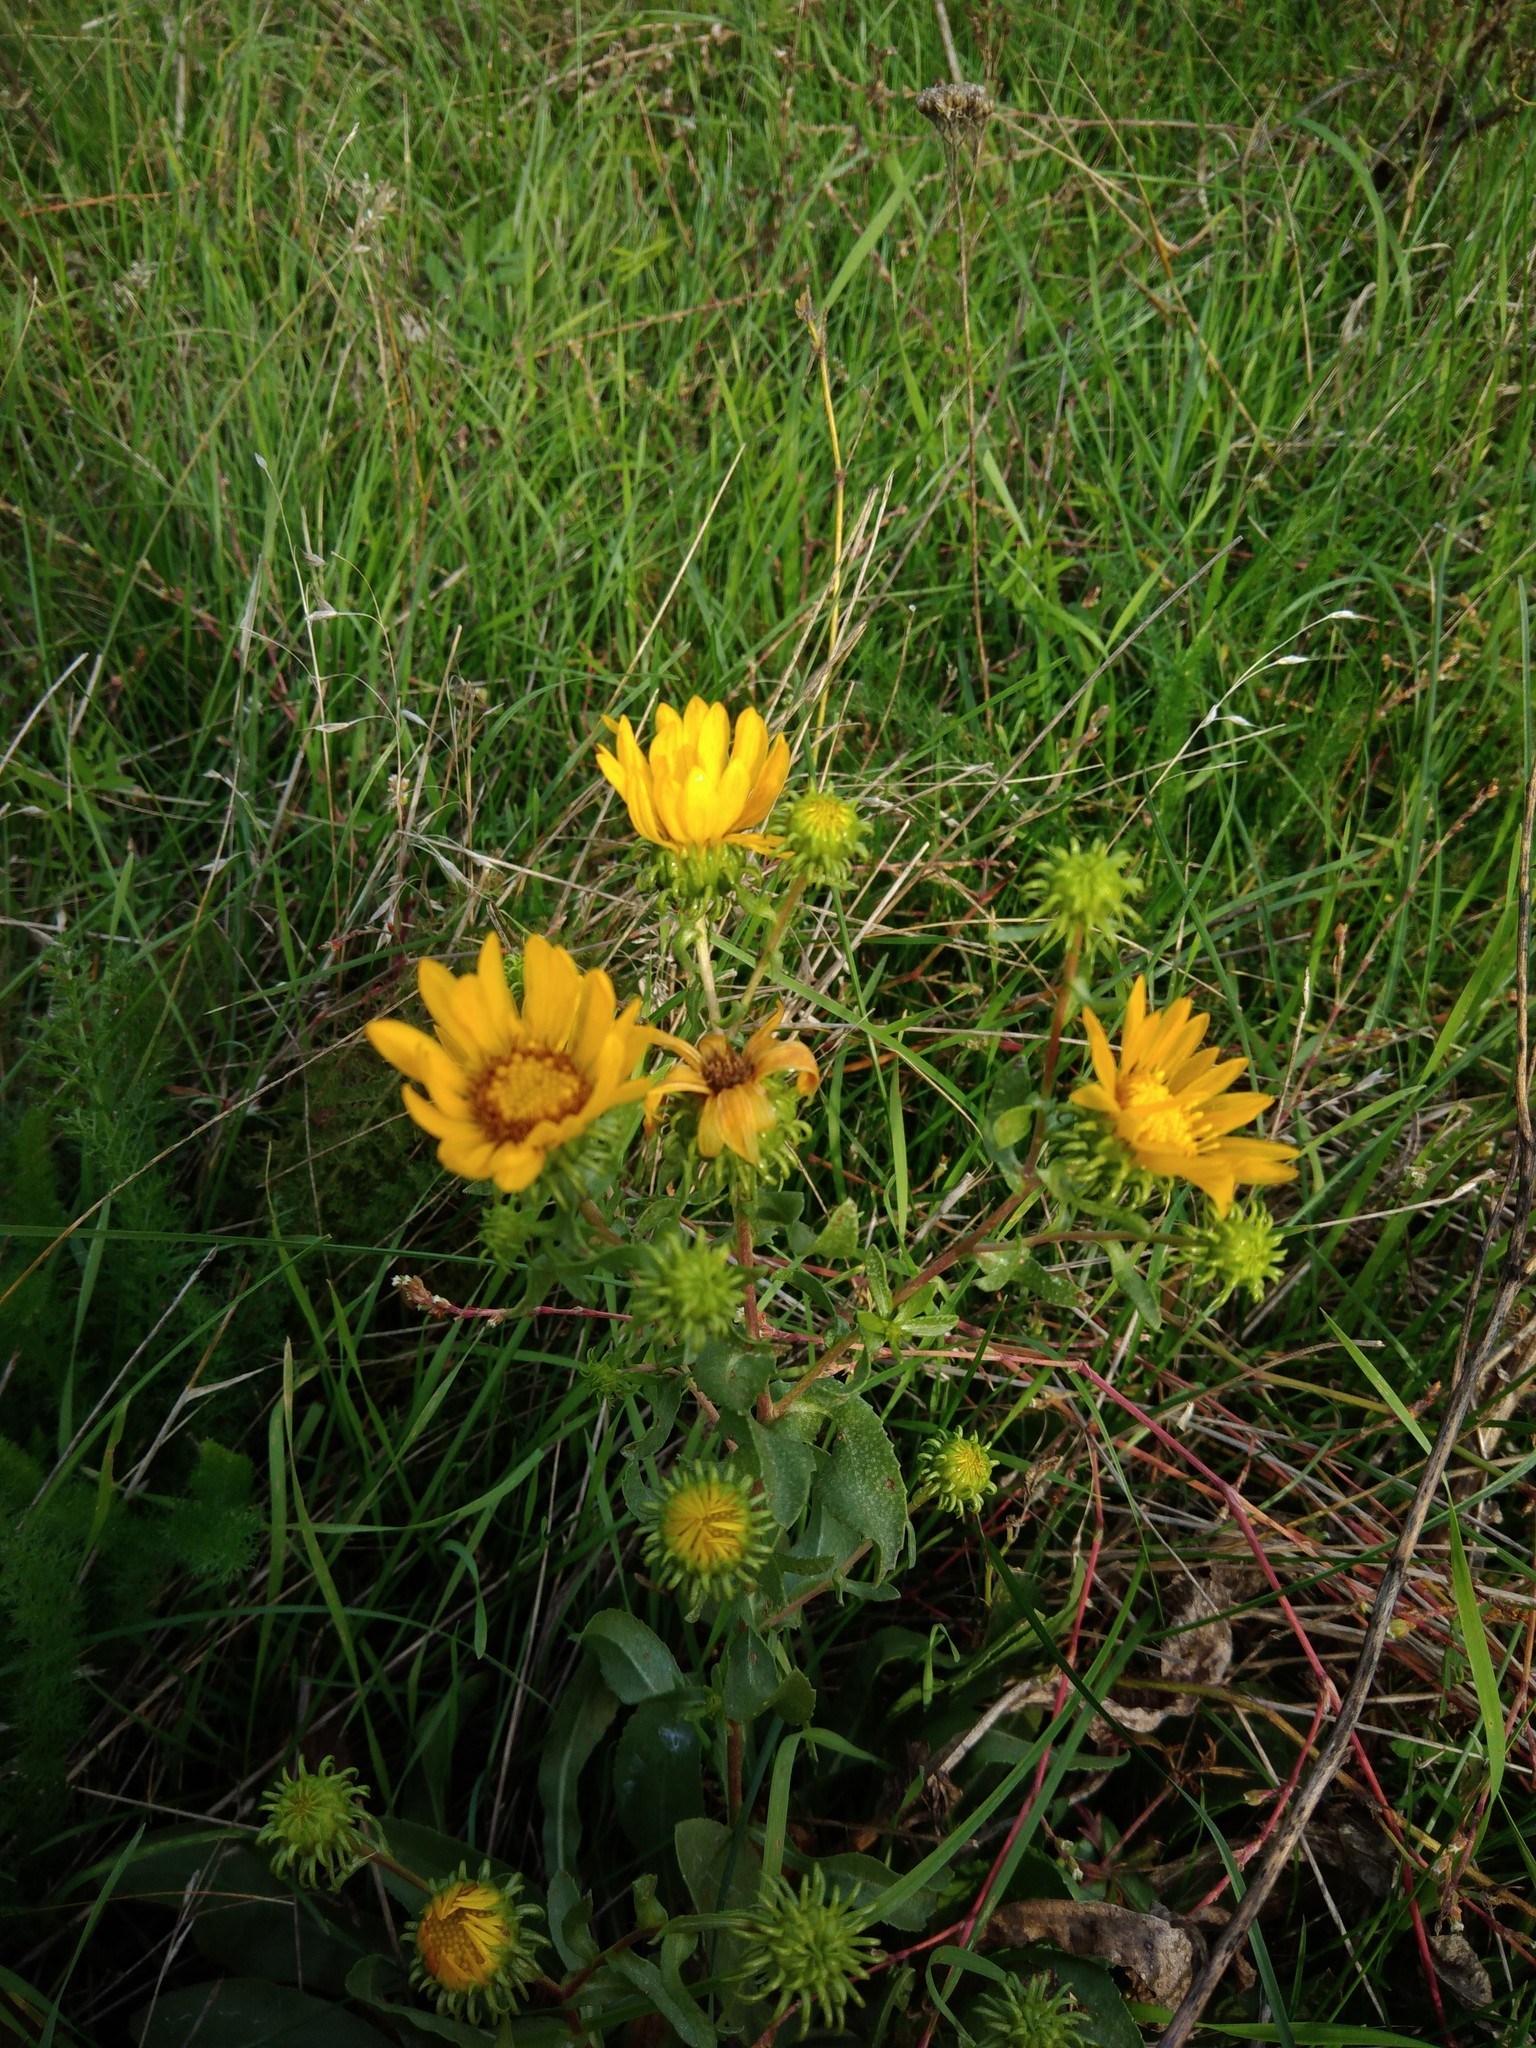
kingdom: Plantae
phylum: Tracheophyta
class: Magnoliopsida
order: Asterales
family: Asteraceae
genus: Grindelia
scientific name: Grindelia squarrosa
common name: Curly-cup gumweed
